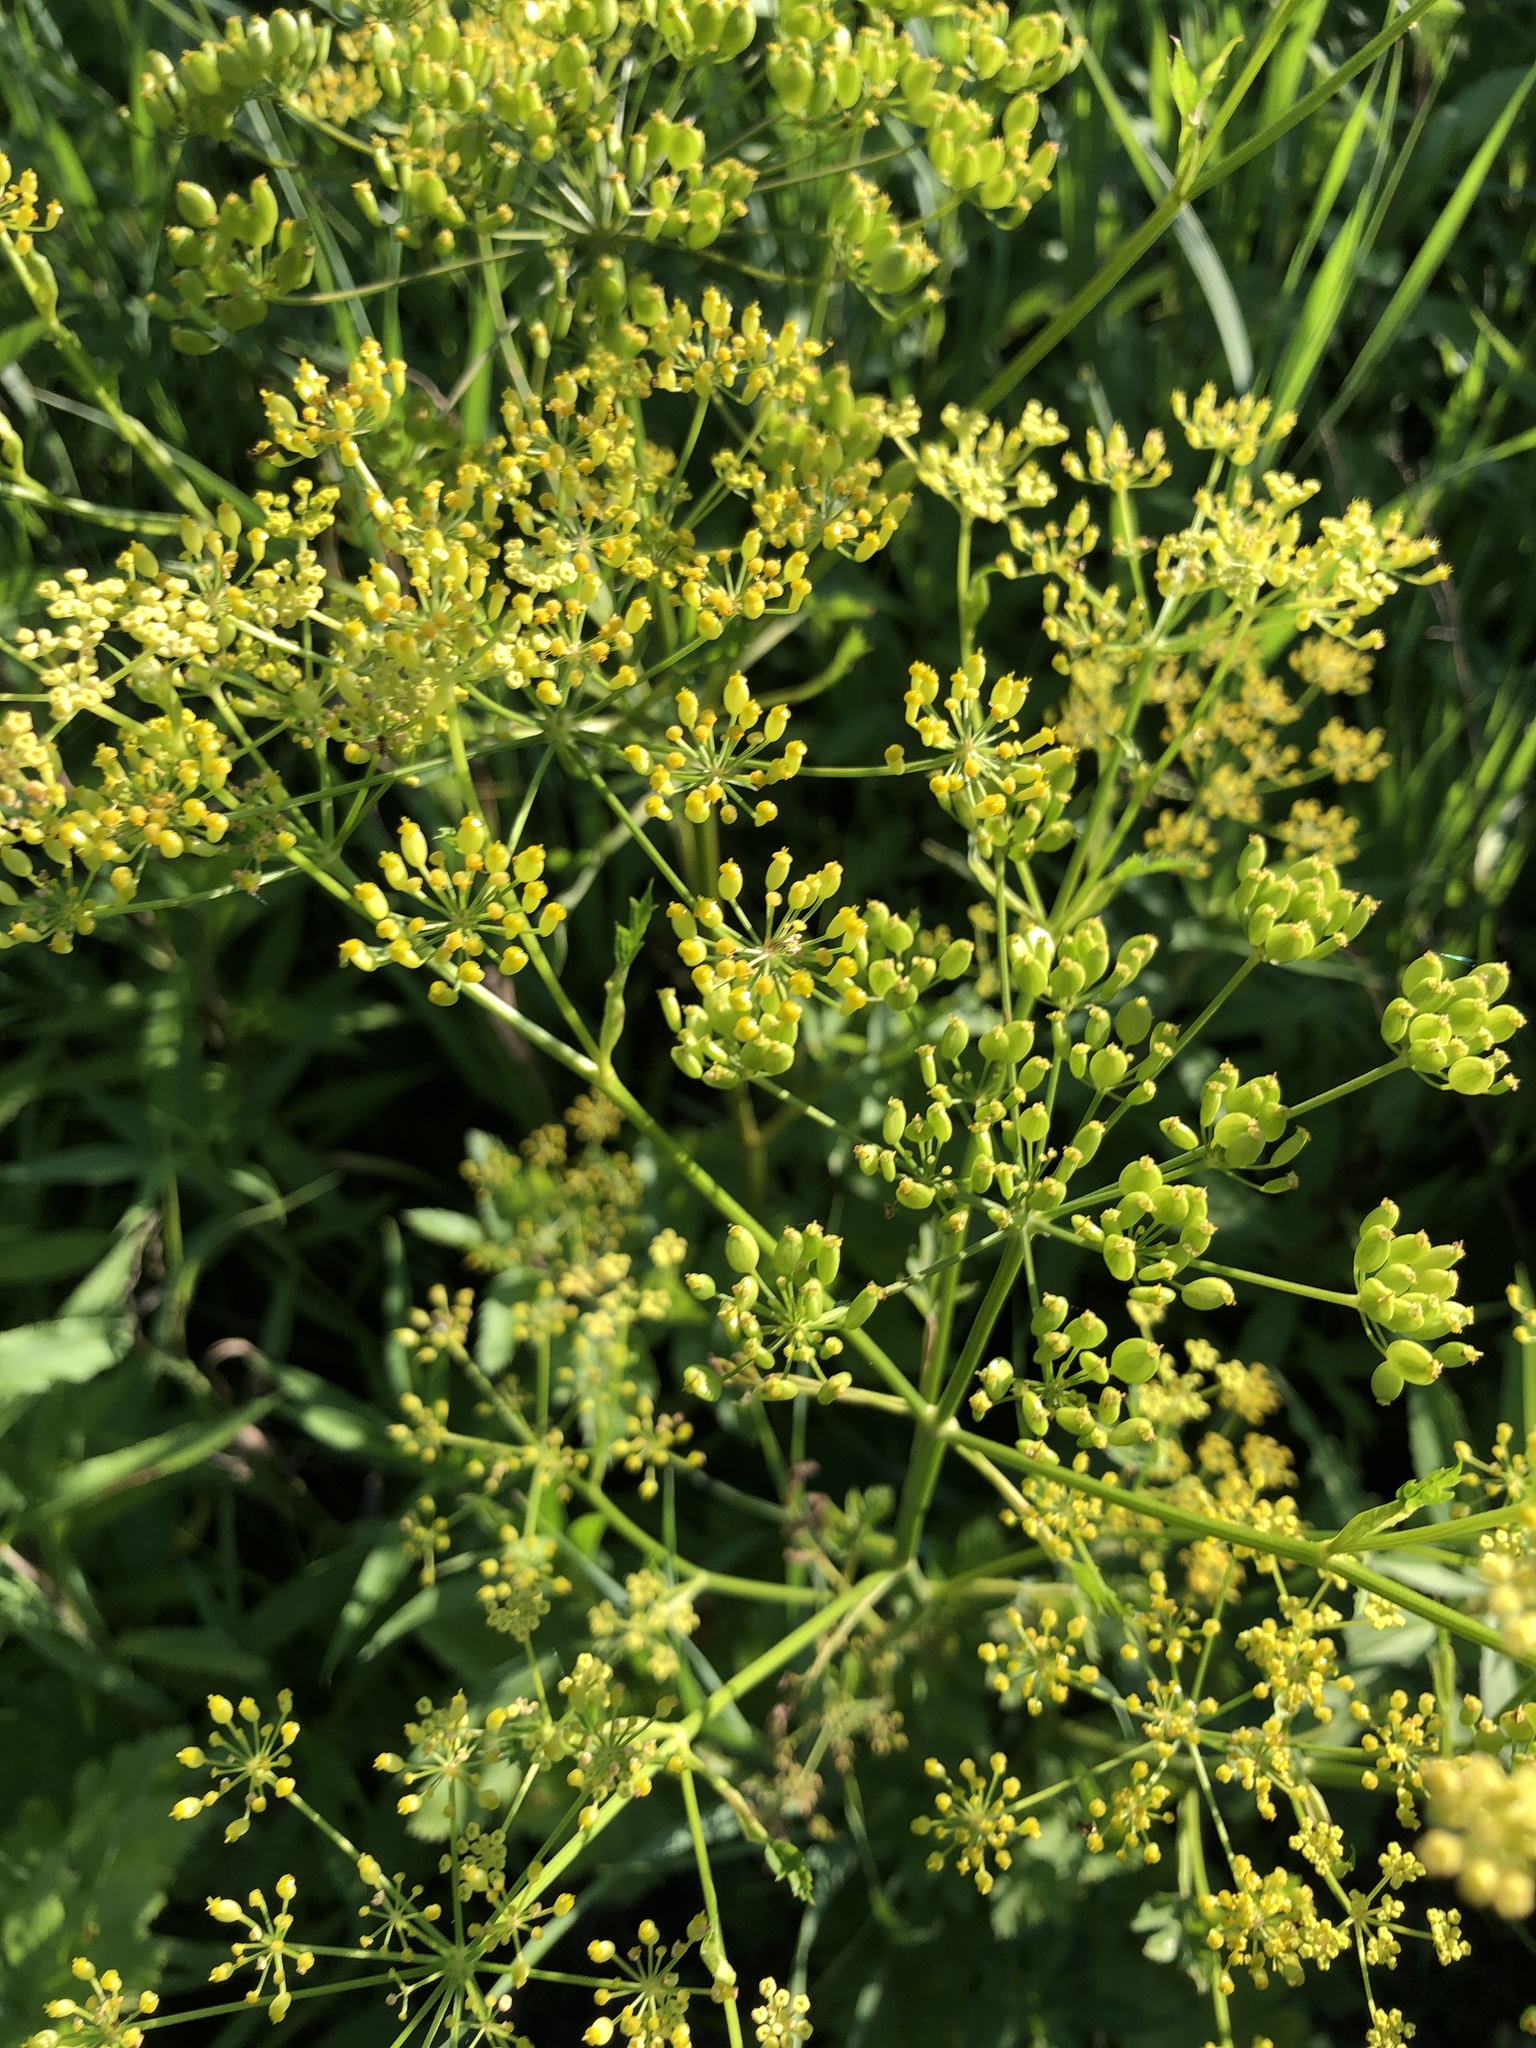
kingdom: Plantae
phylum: Tracheophyta
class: Magnoliopsida
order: Apiales
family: Apiaceae
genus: Pastinaca
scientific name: Pastinaca sativa
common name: Wild parsnip
